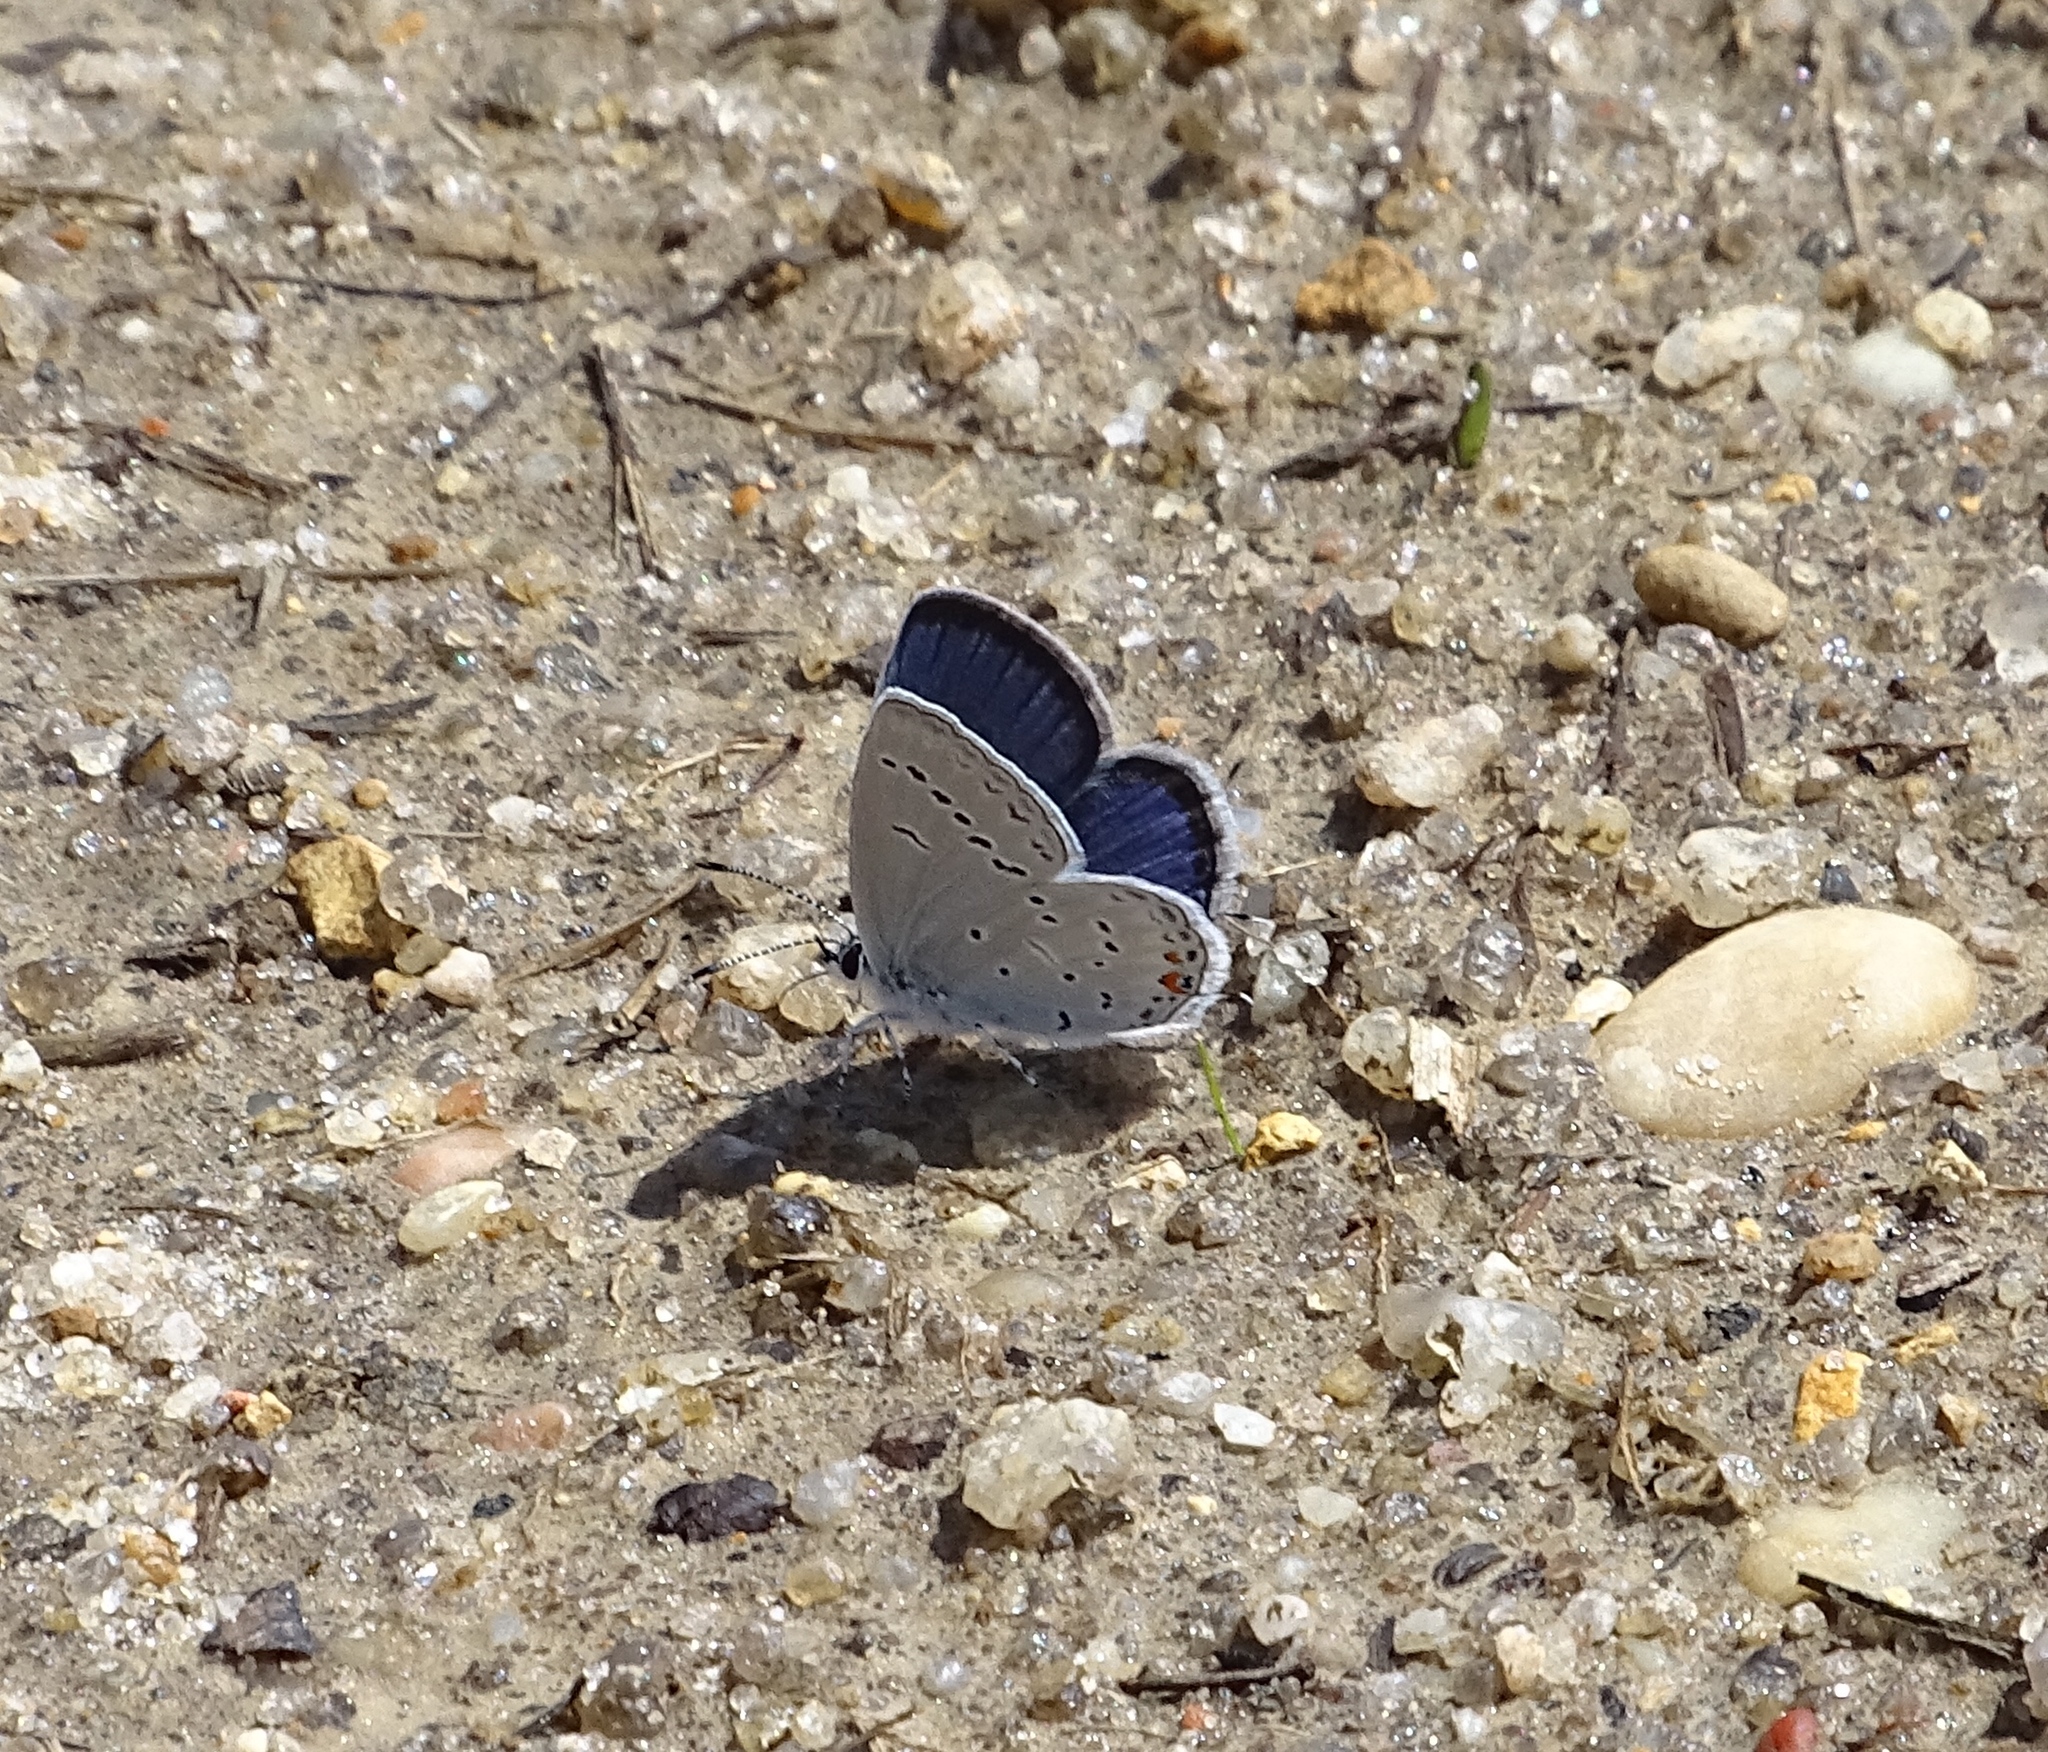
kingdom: Animalia
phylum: Arthropoda
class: Insecta
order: Lepidoptera
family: Lycaenidae
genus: Elkalyce
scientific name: Elkalyce comyntas
